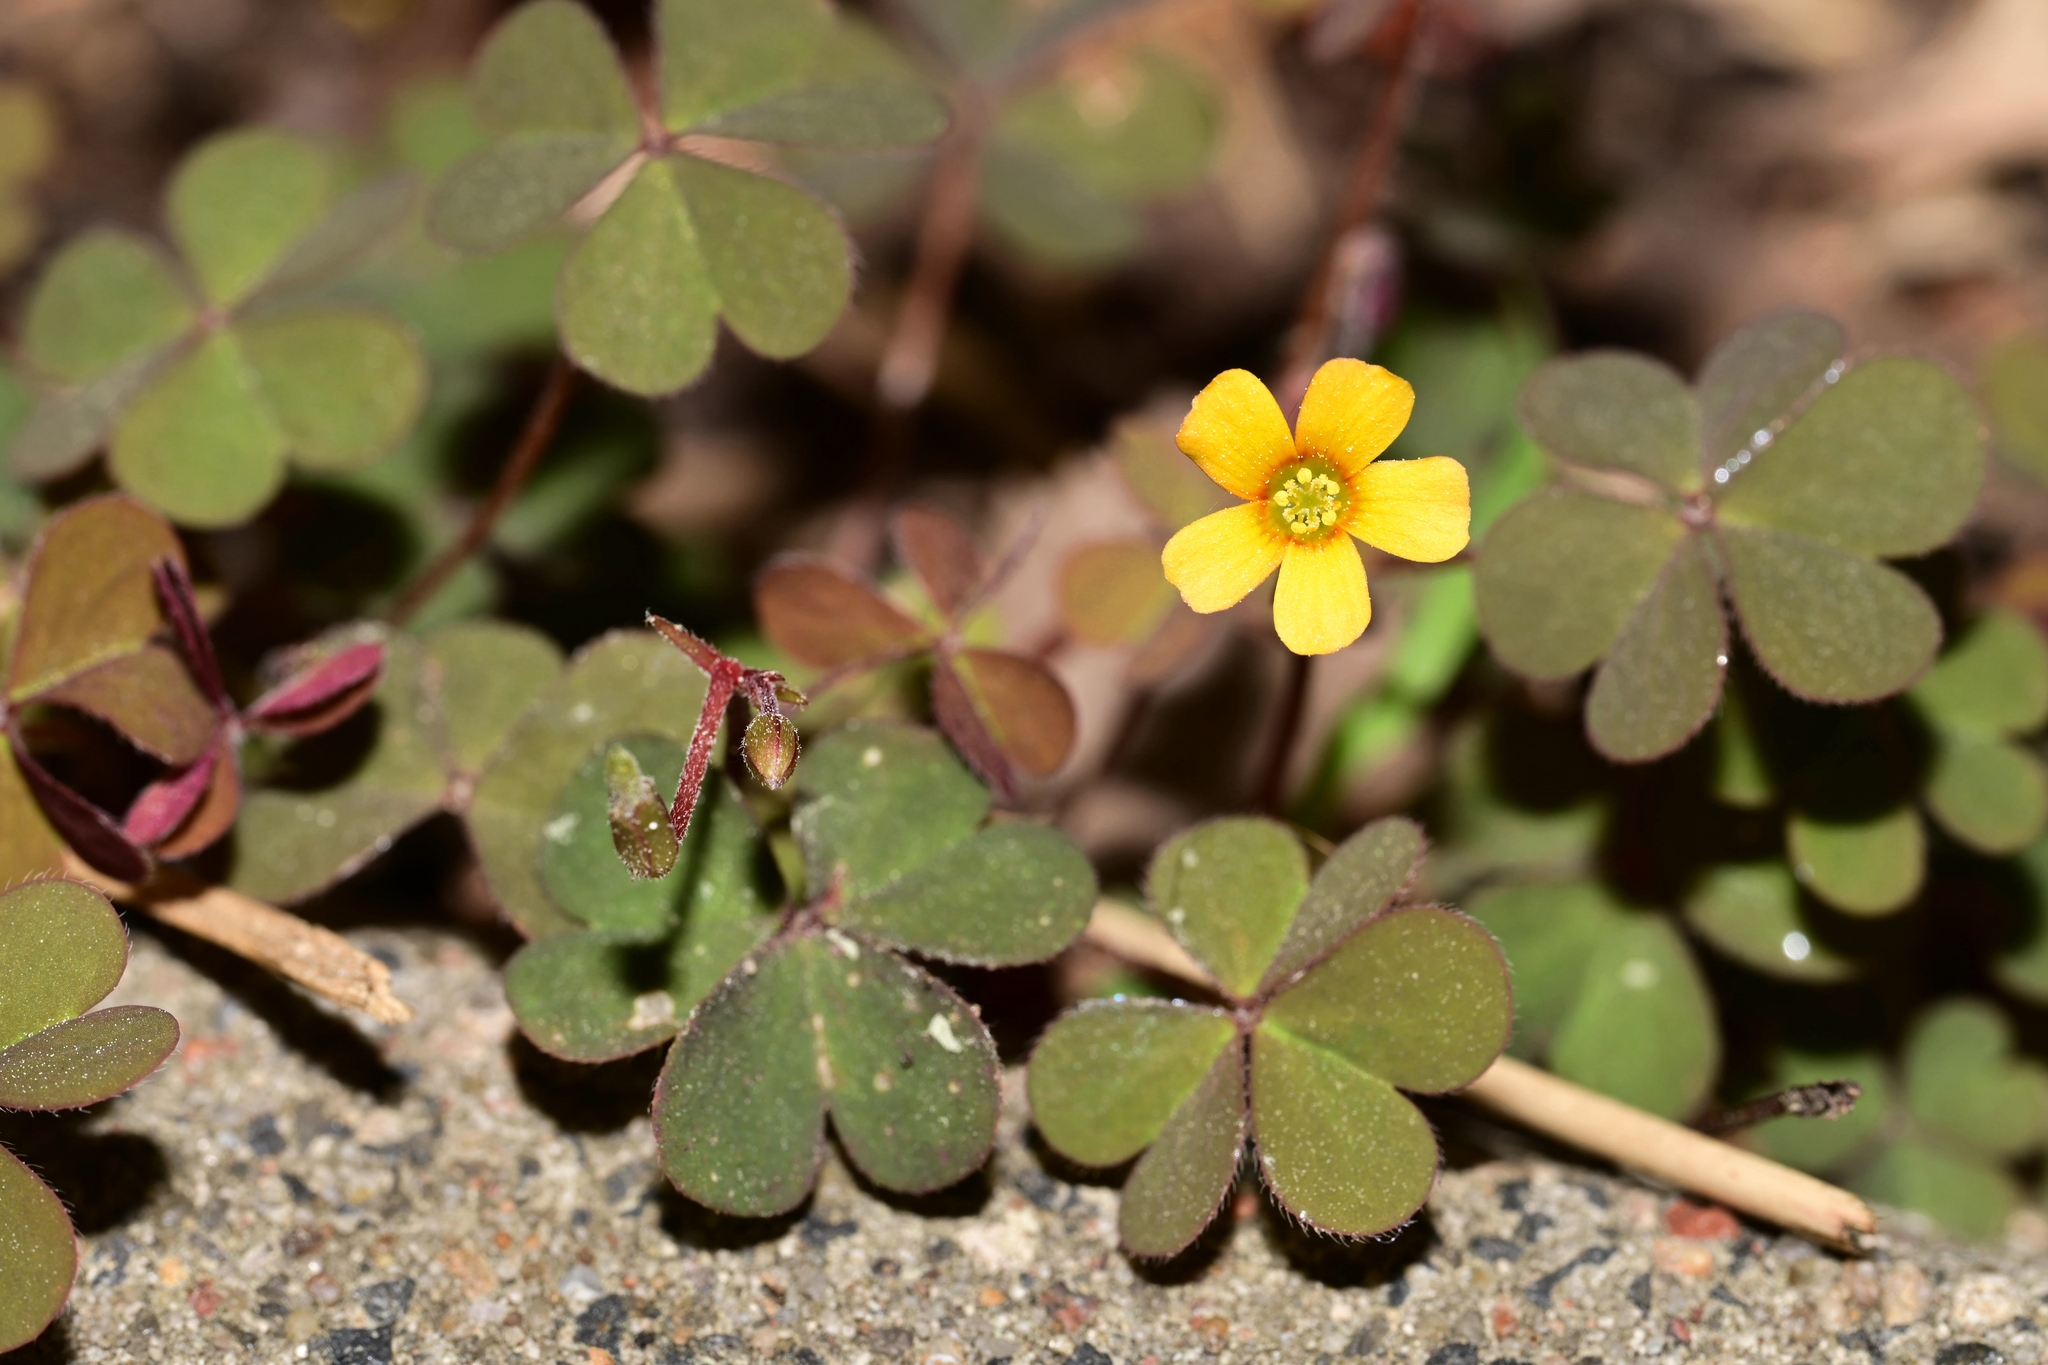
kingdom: Plantae
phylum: Tracheophyta
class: Magnoliopsida
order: Oxalidales
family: Oxalidaceae
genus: Oxalis
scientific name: Oxalis corniculata
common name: Procumbent yellow-sorrel
